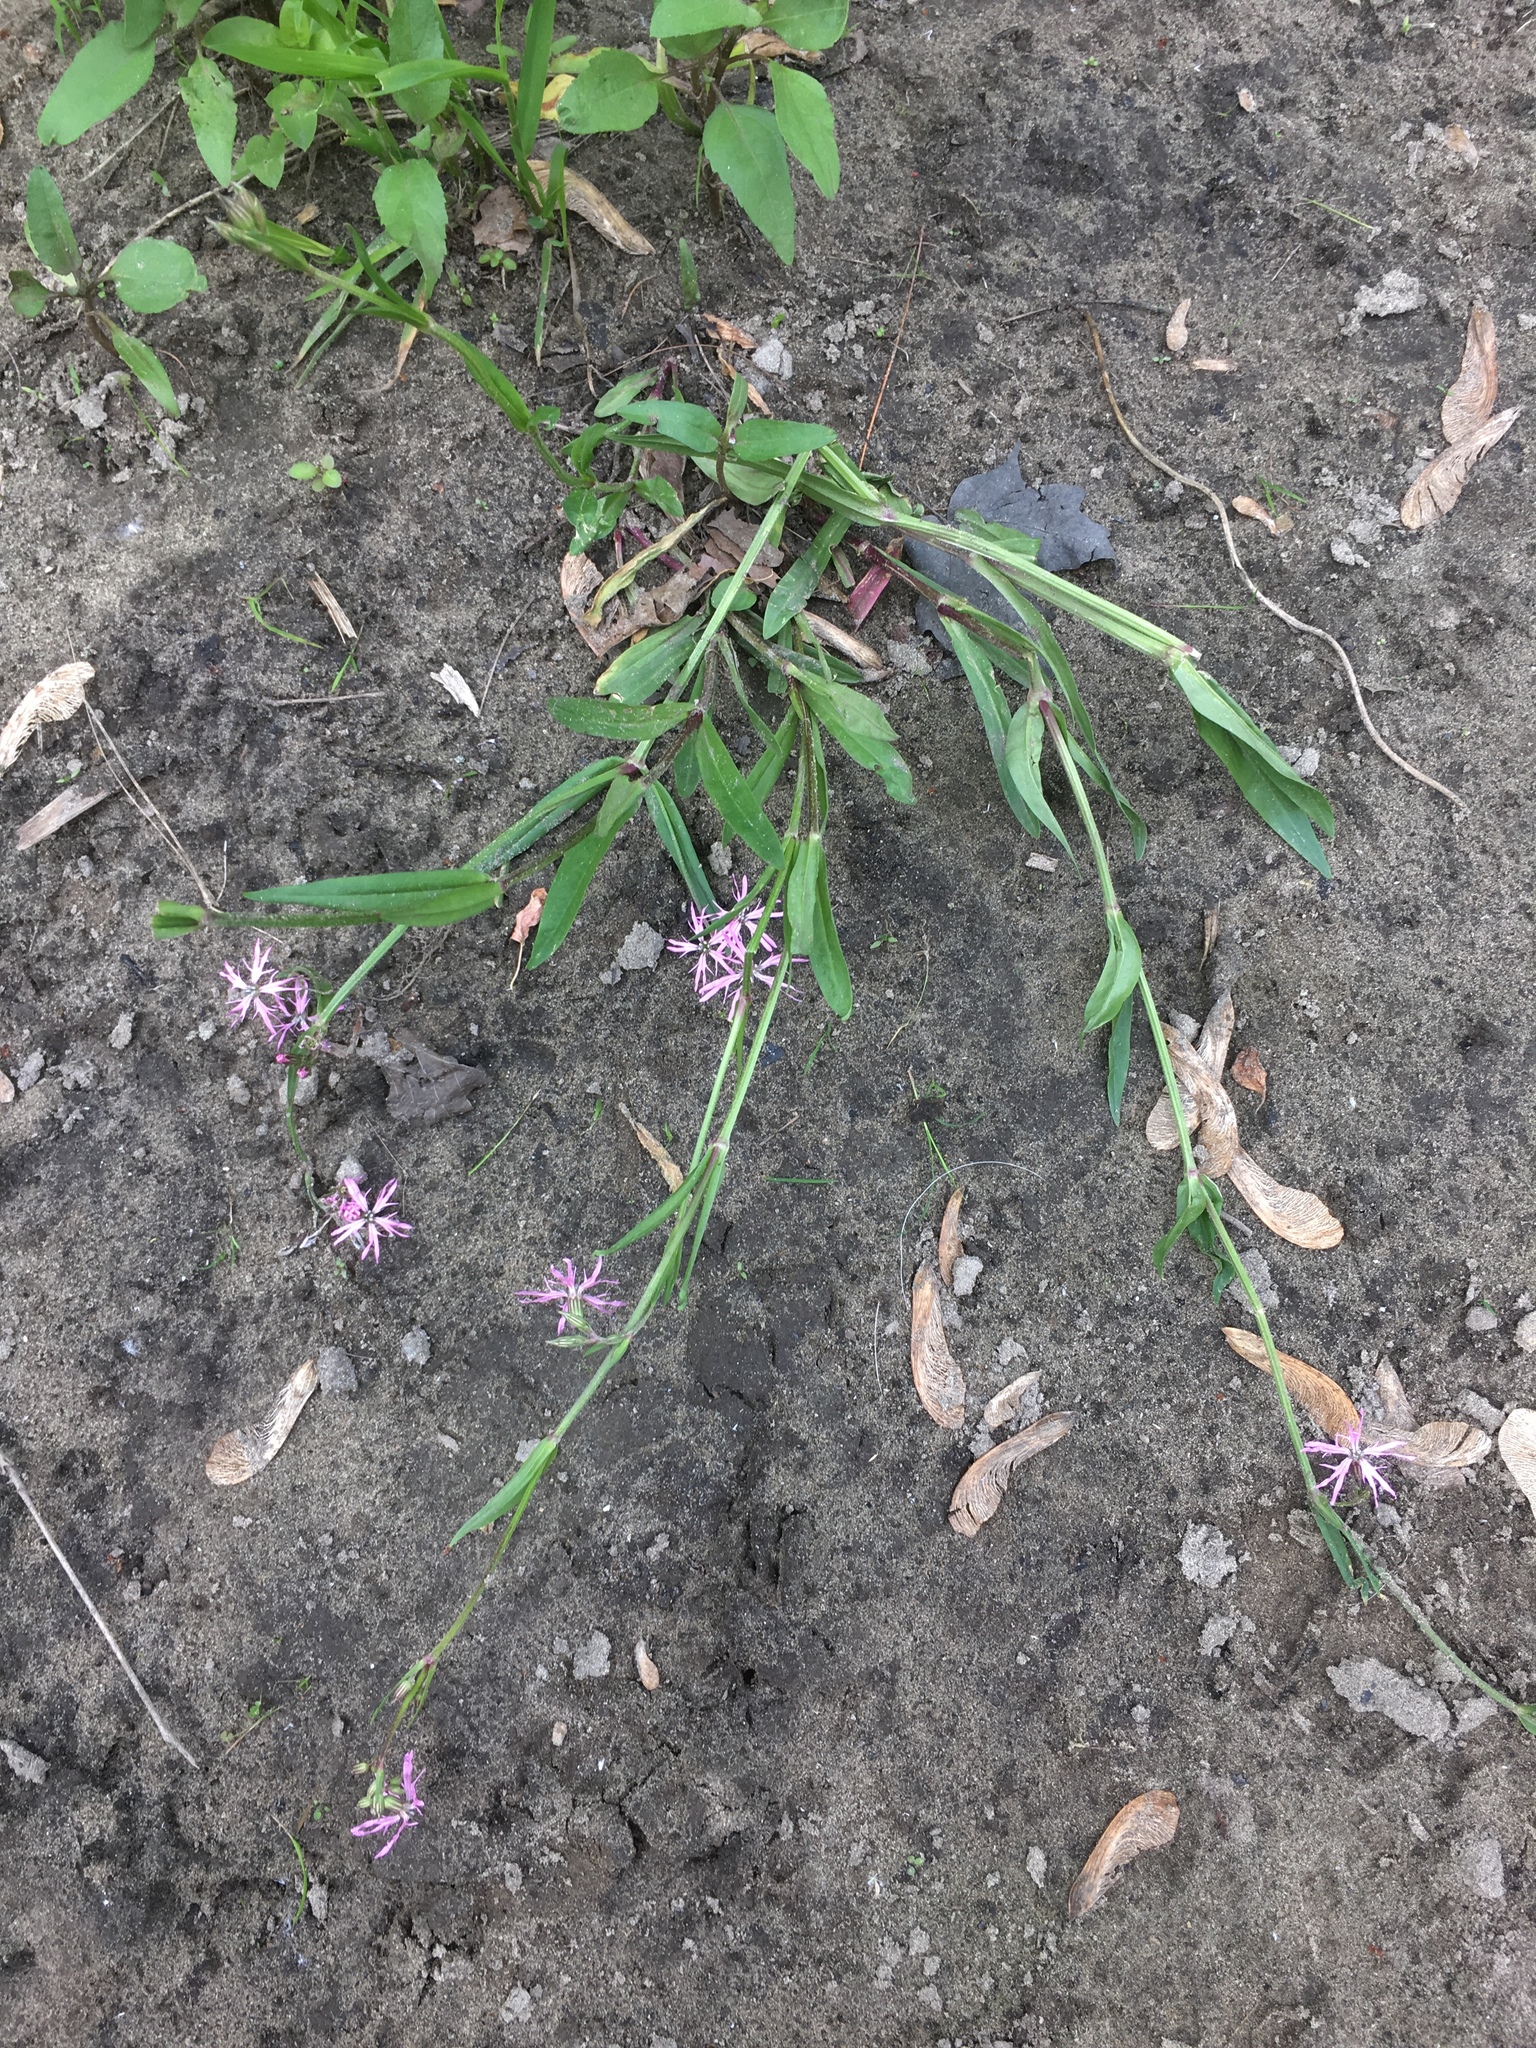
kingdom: Plantae
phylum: Tracheophyta
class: Magnoliopsida
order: Caryophyllales
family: Caryophyllaceae
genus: Silene
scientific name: Silene flos-cuculi
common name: Ragged-robin
